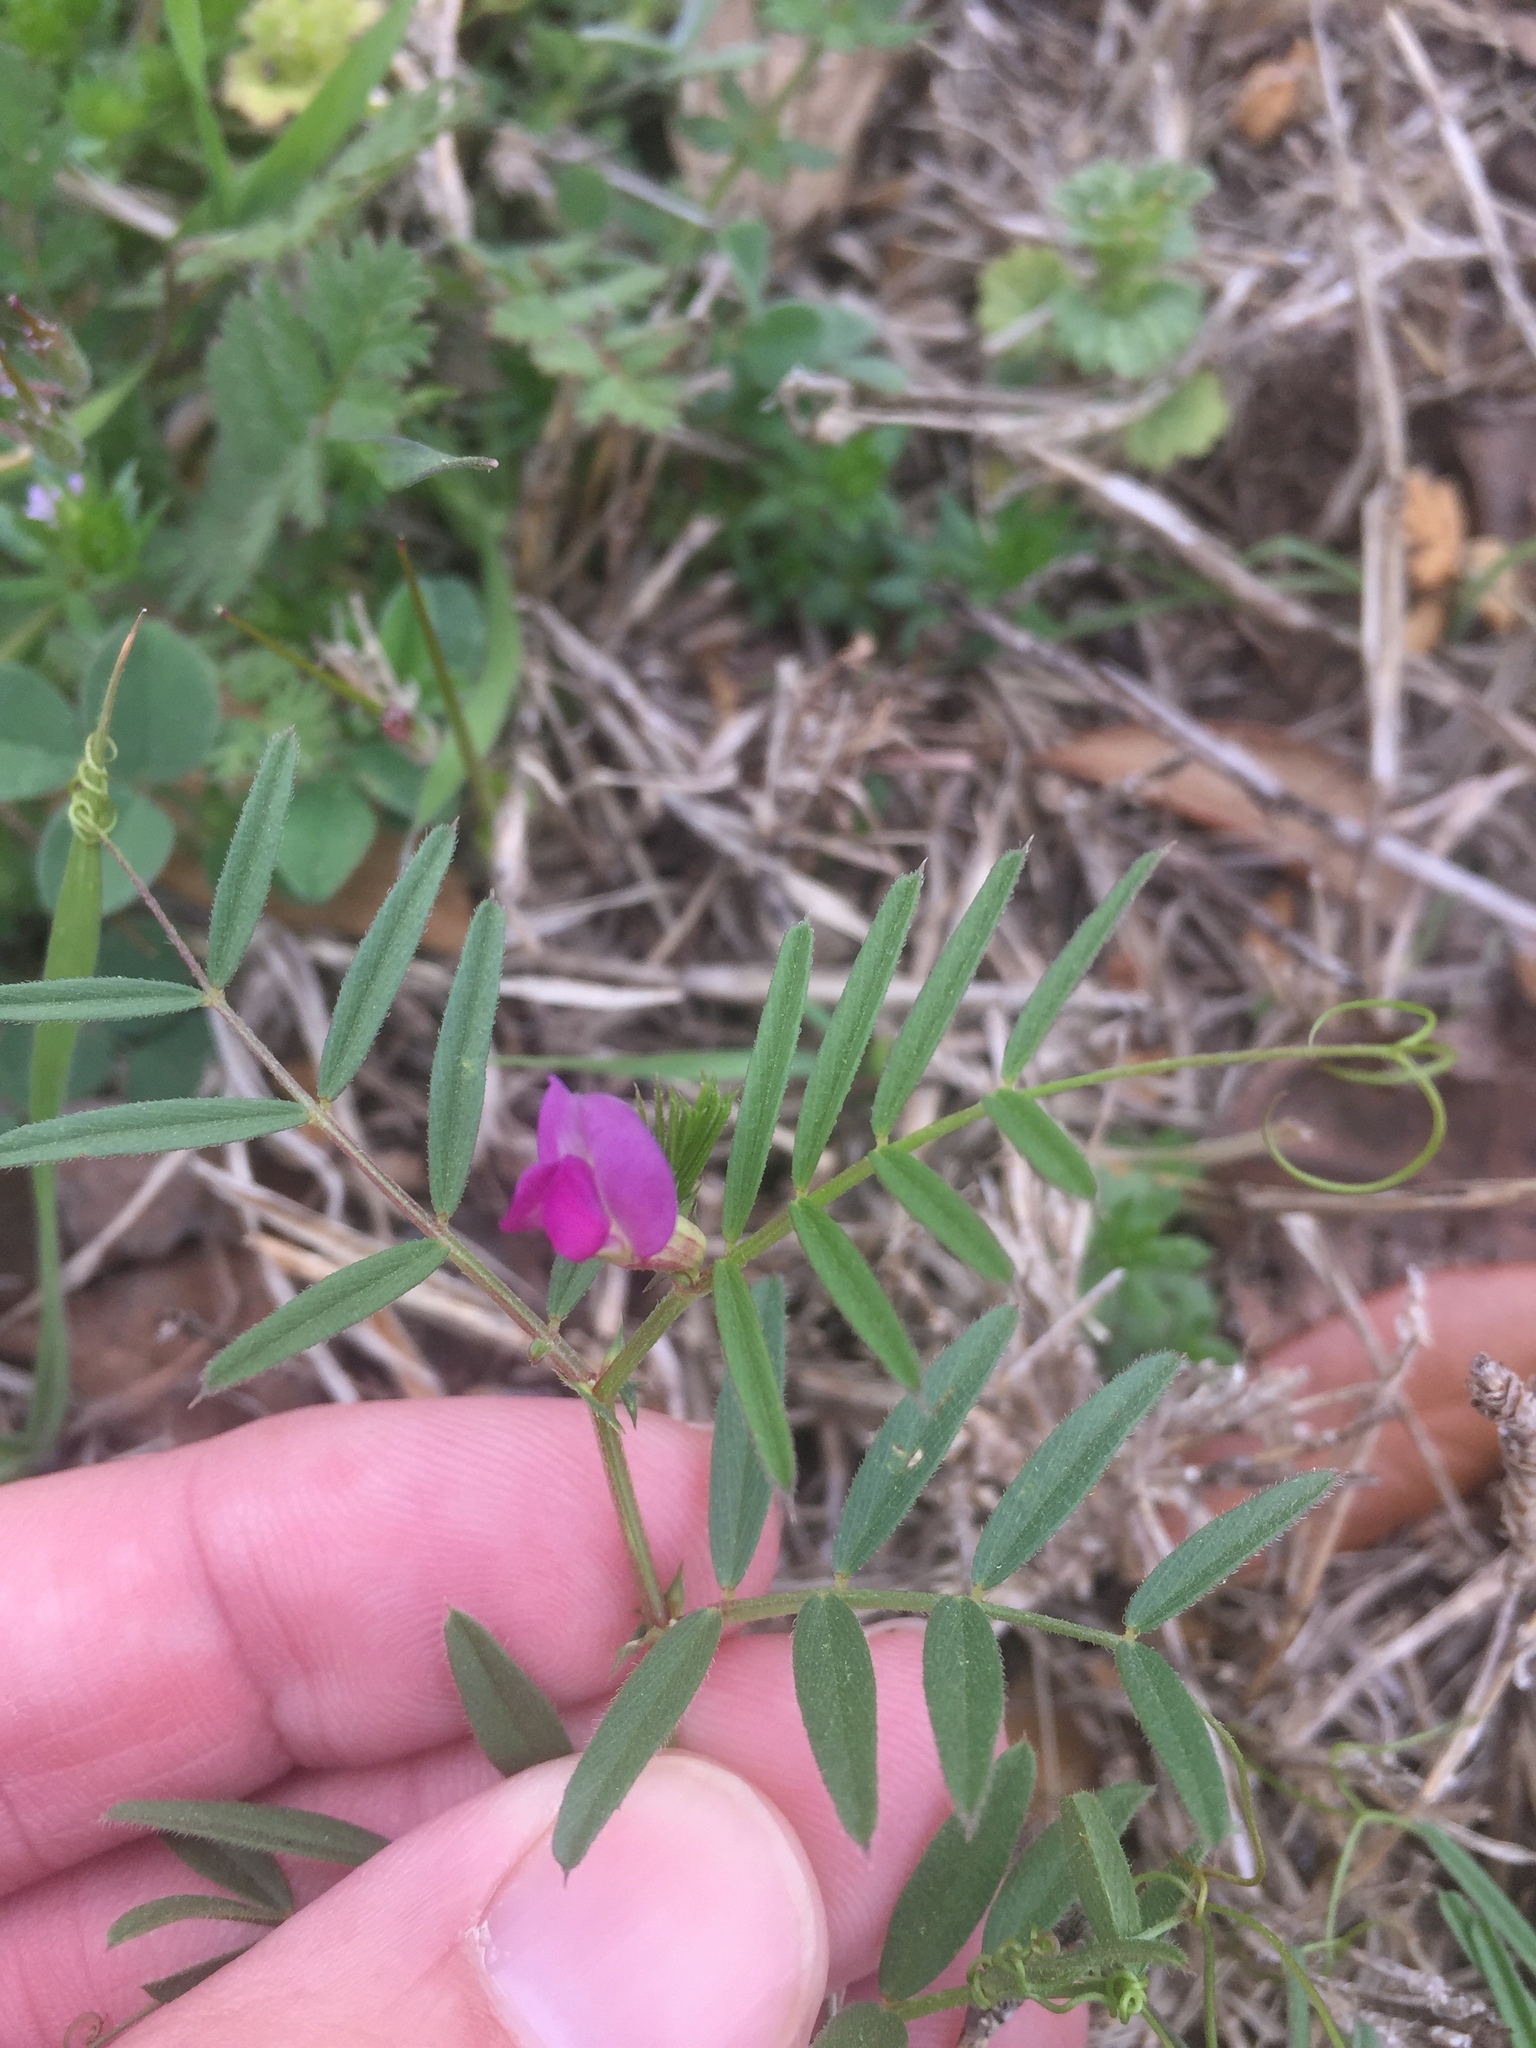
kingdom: Plantae
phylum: Tracheophyta
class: Magnoliopsida
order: Fabales
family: Fabaceae
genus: Vicia
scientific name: Vicia sativa
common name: Garden vetch
